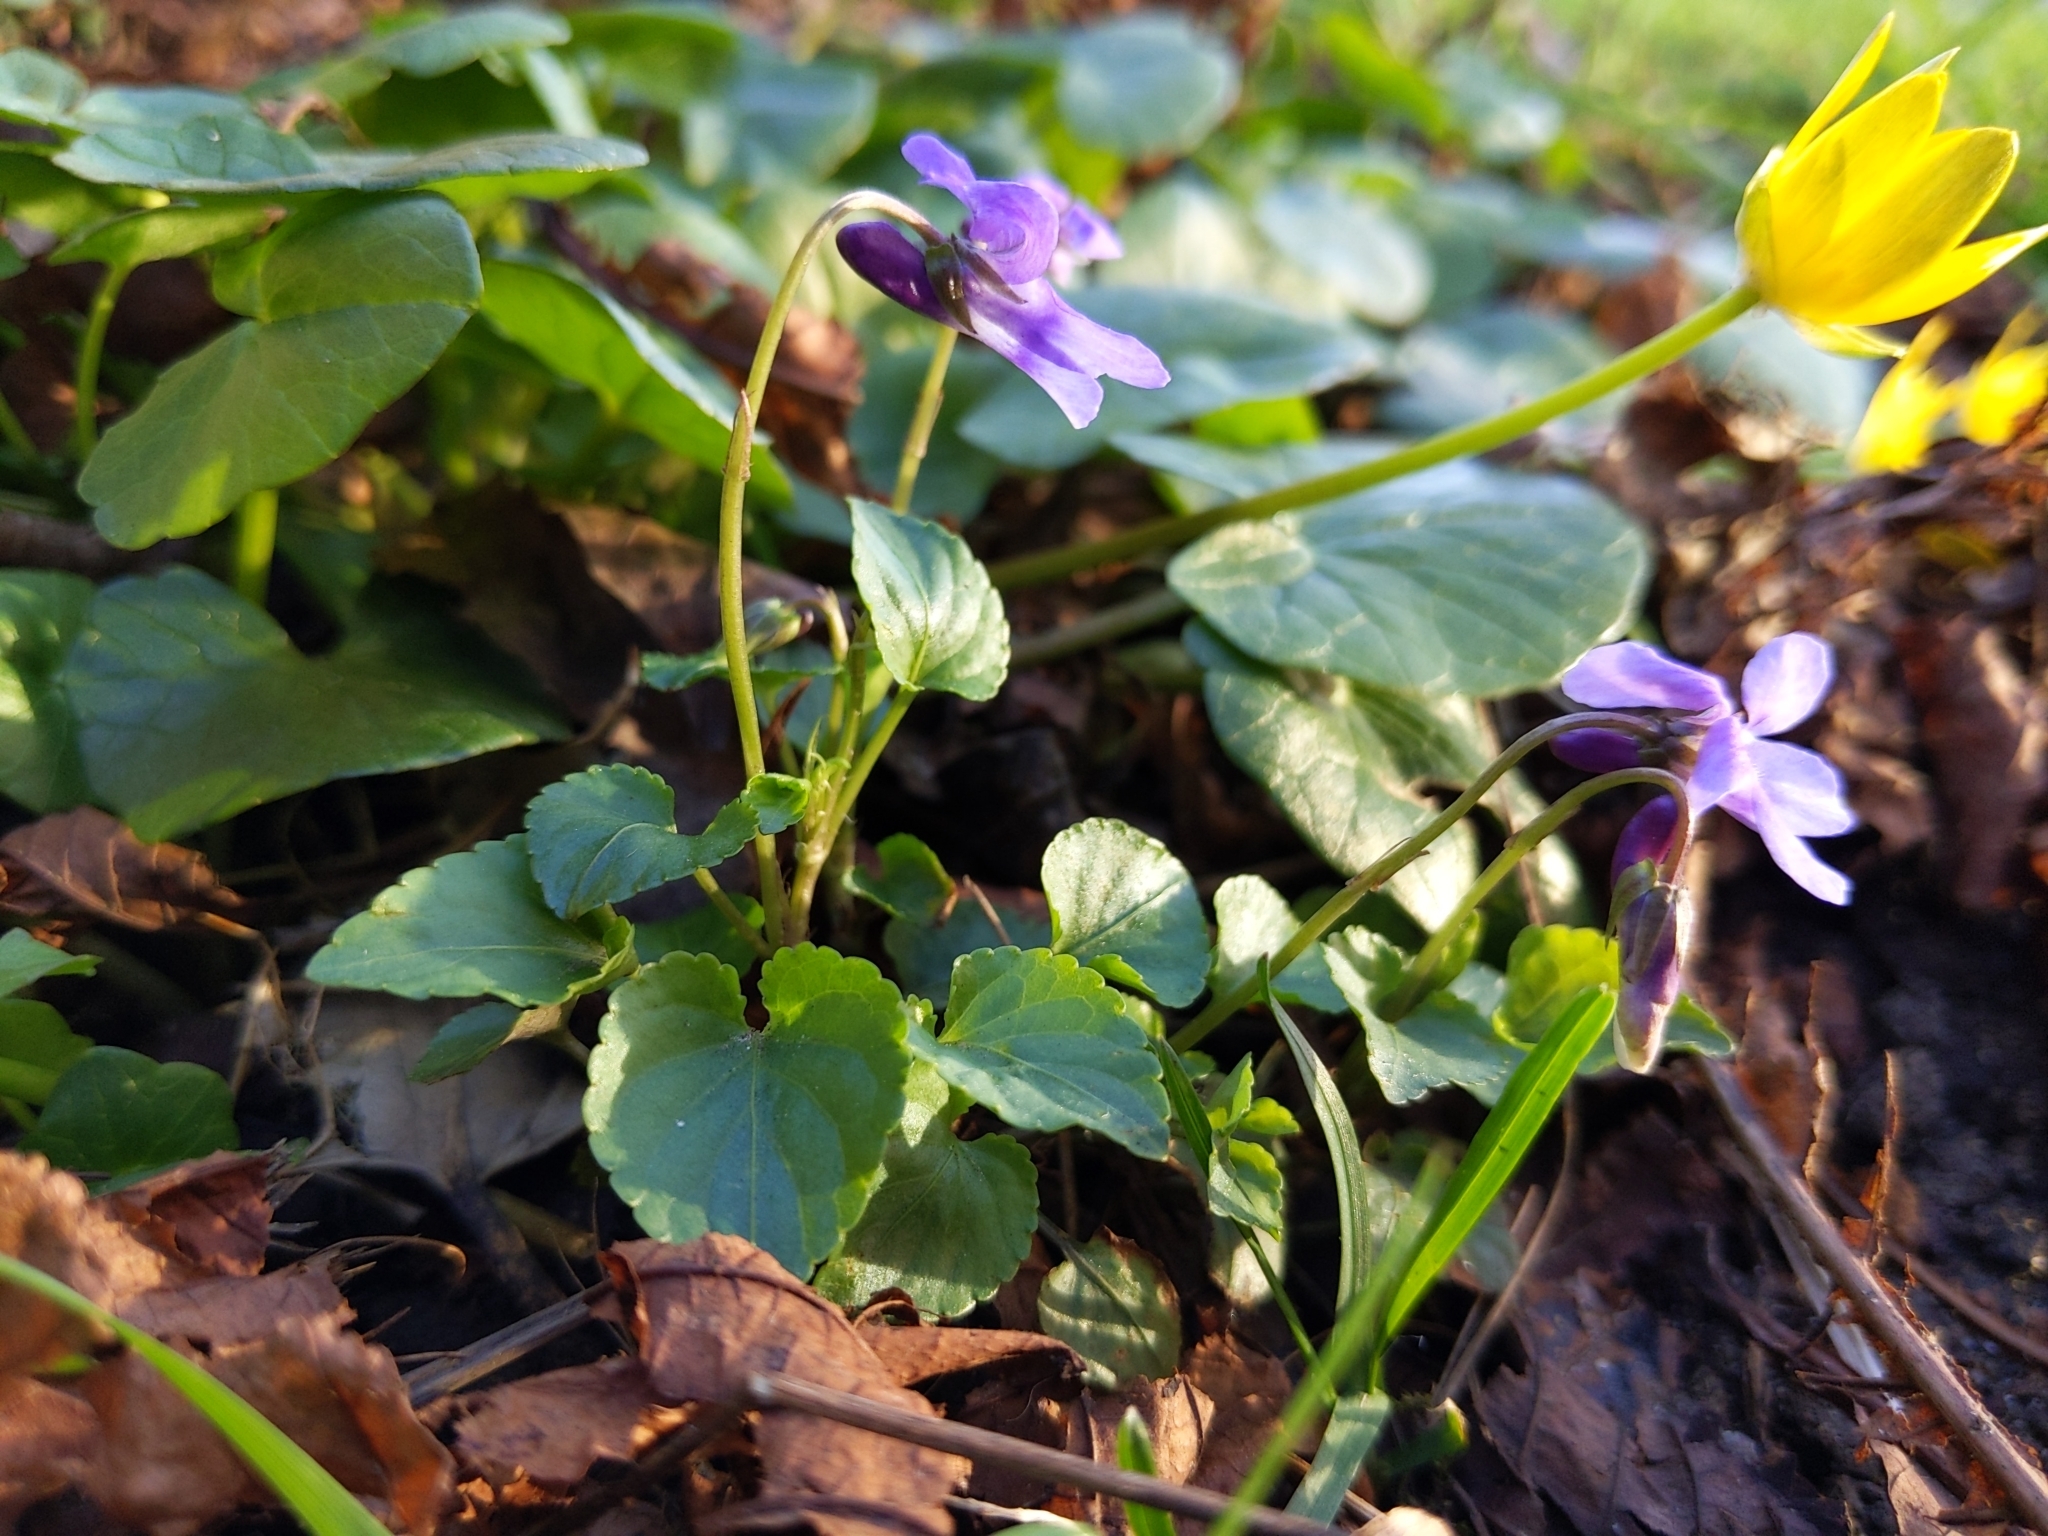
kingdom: Plantae
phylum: Tracheophyta
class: Magnoliopsida
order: Malpighiales
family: Violaceae
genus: Viola
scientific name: Viola reichenbachiana
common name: Early dog-violet
